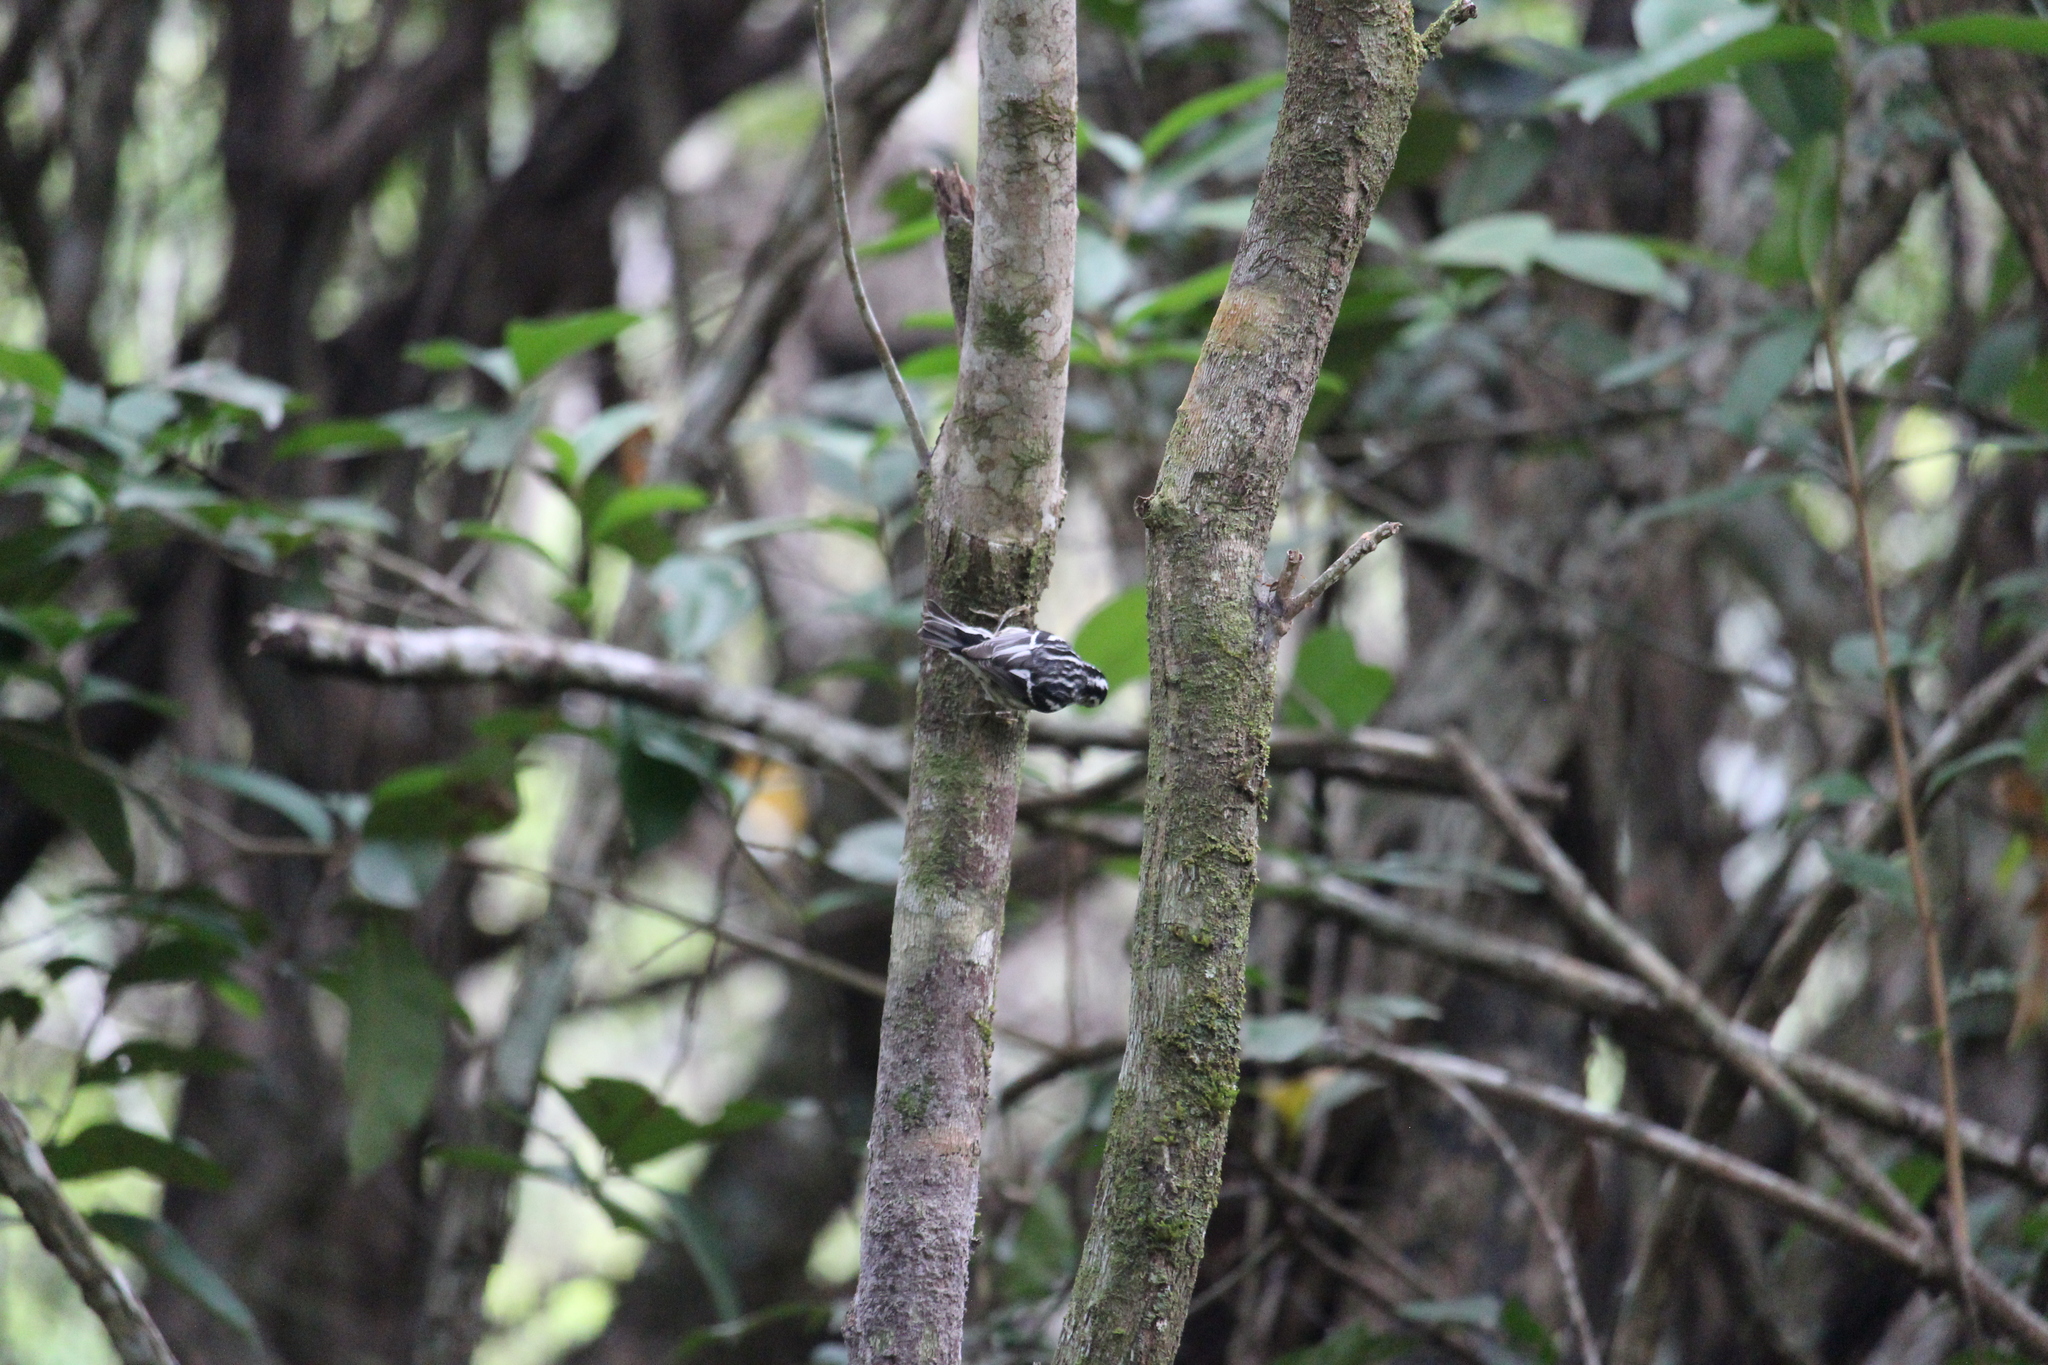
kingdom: Animalia
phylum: Chordata
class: Aves
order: Passeriformes
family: Parulidae
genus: Mniotilta
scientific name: Mniotilta varia
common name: Black-and-white warbler
